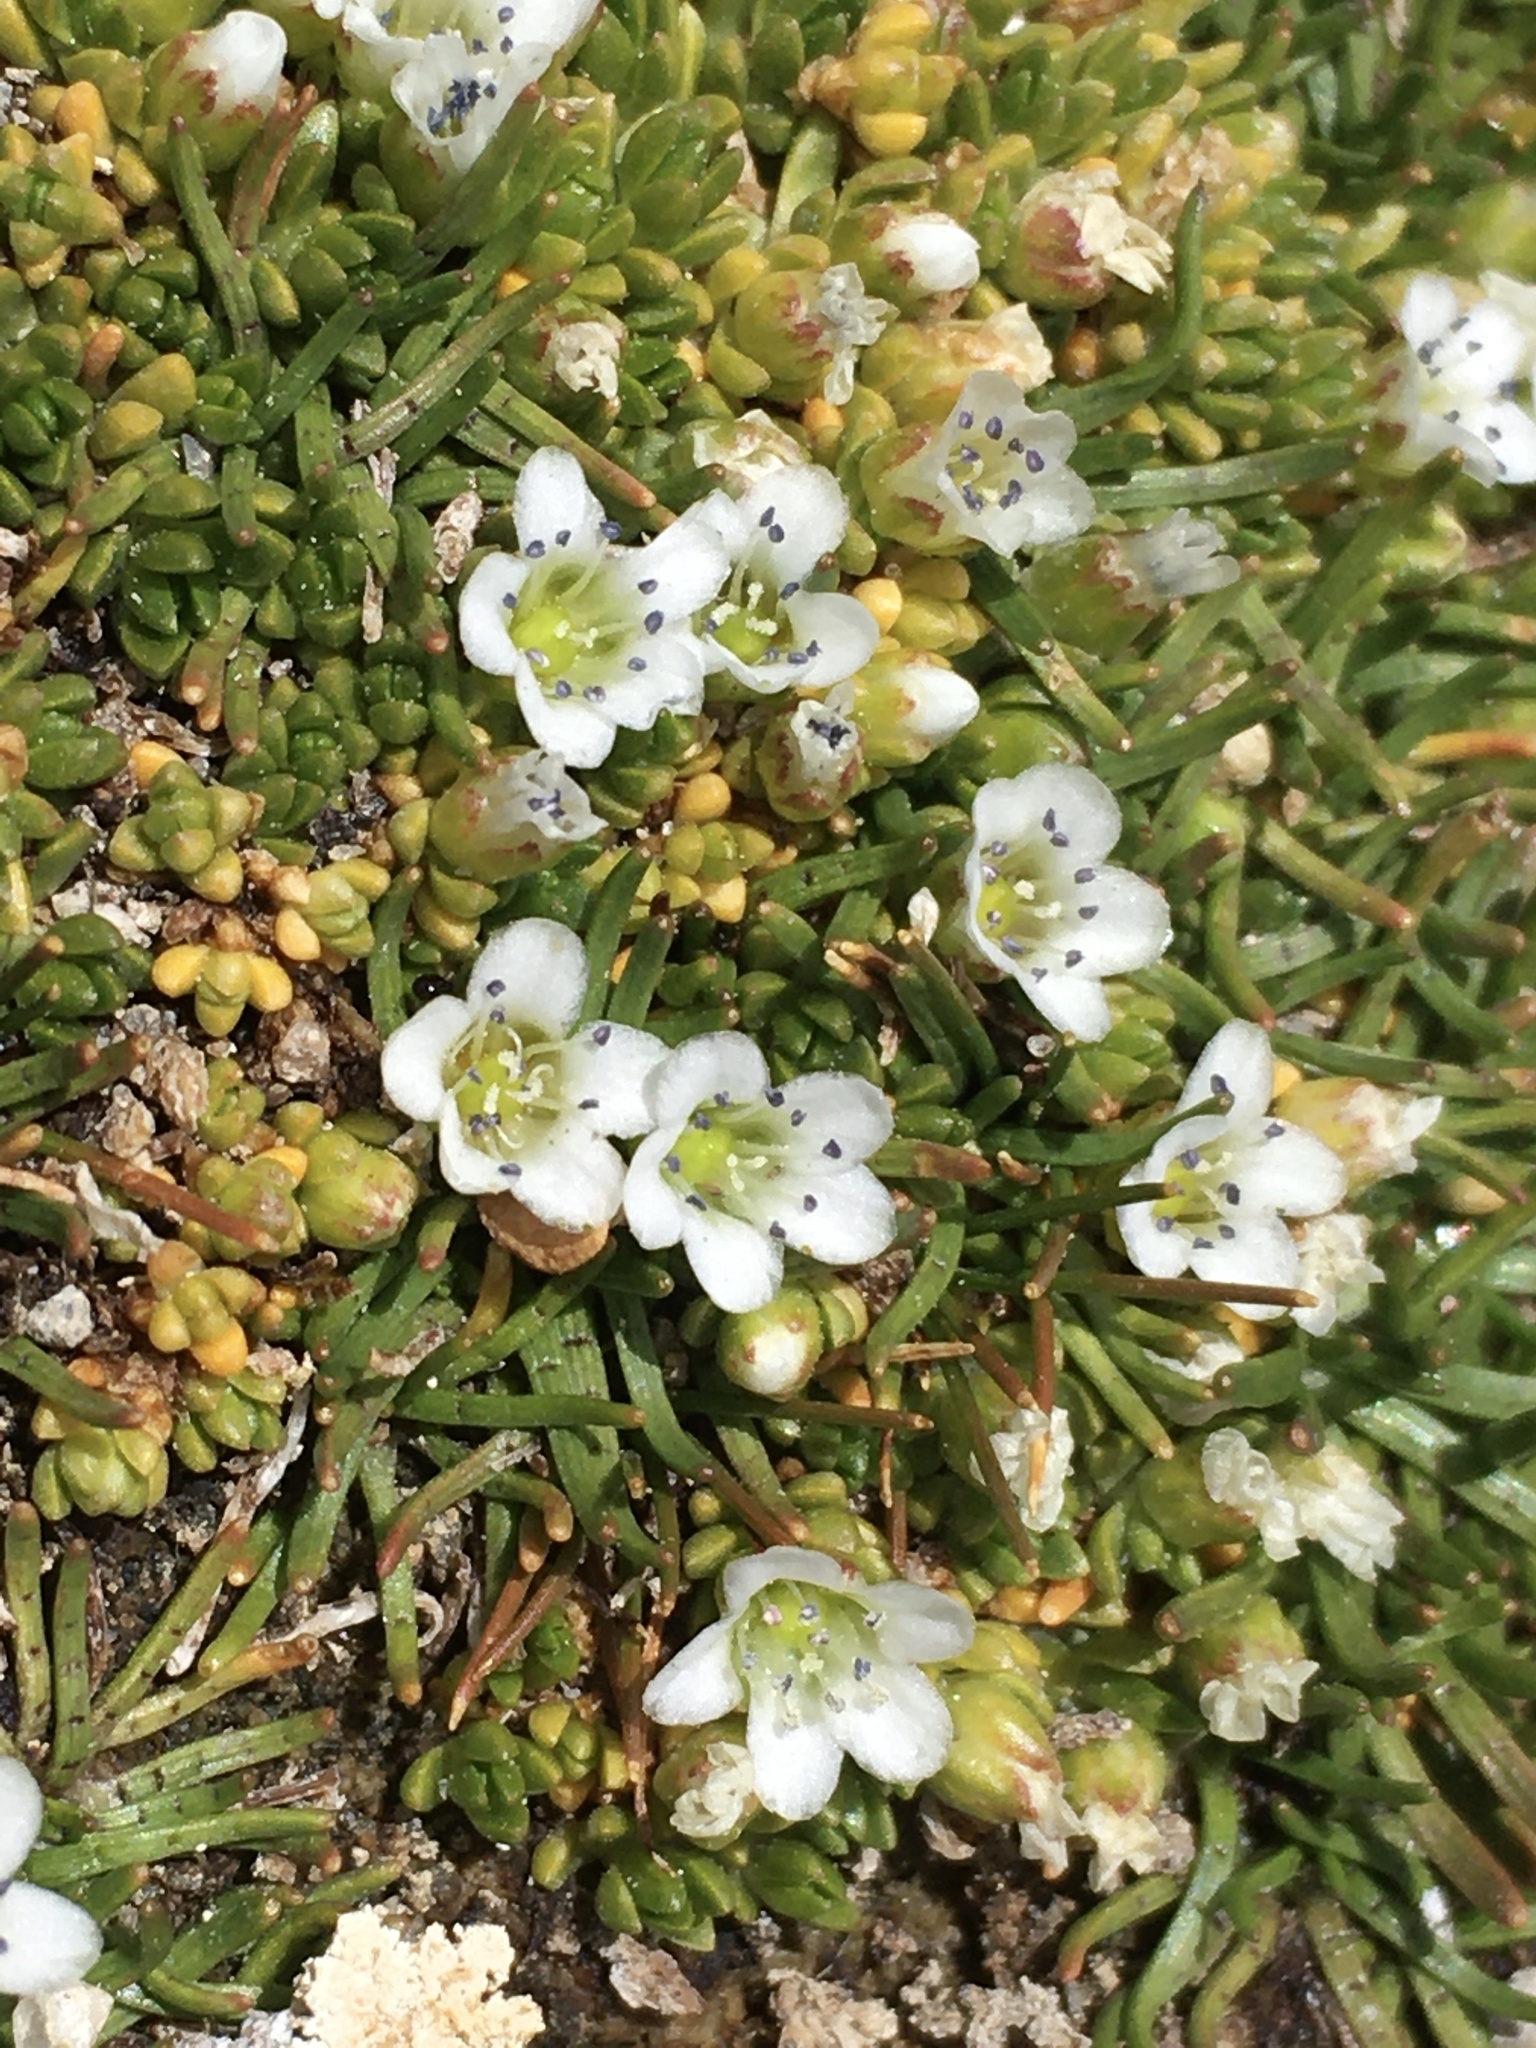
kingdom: Plantae
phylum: Tracheophyta
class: Magnoliopsida
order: Caryophyllales
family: Caryophyllaceae
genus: Arenaria
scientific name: Arenaria rivularis
